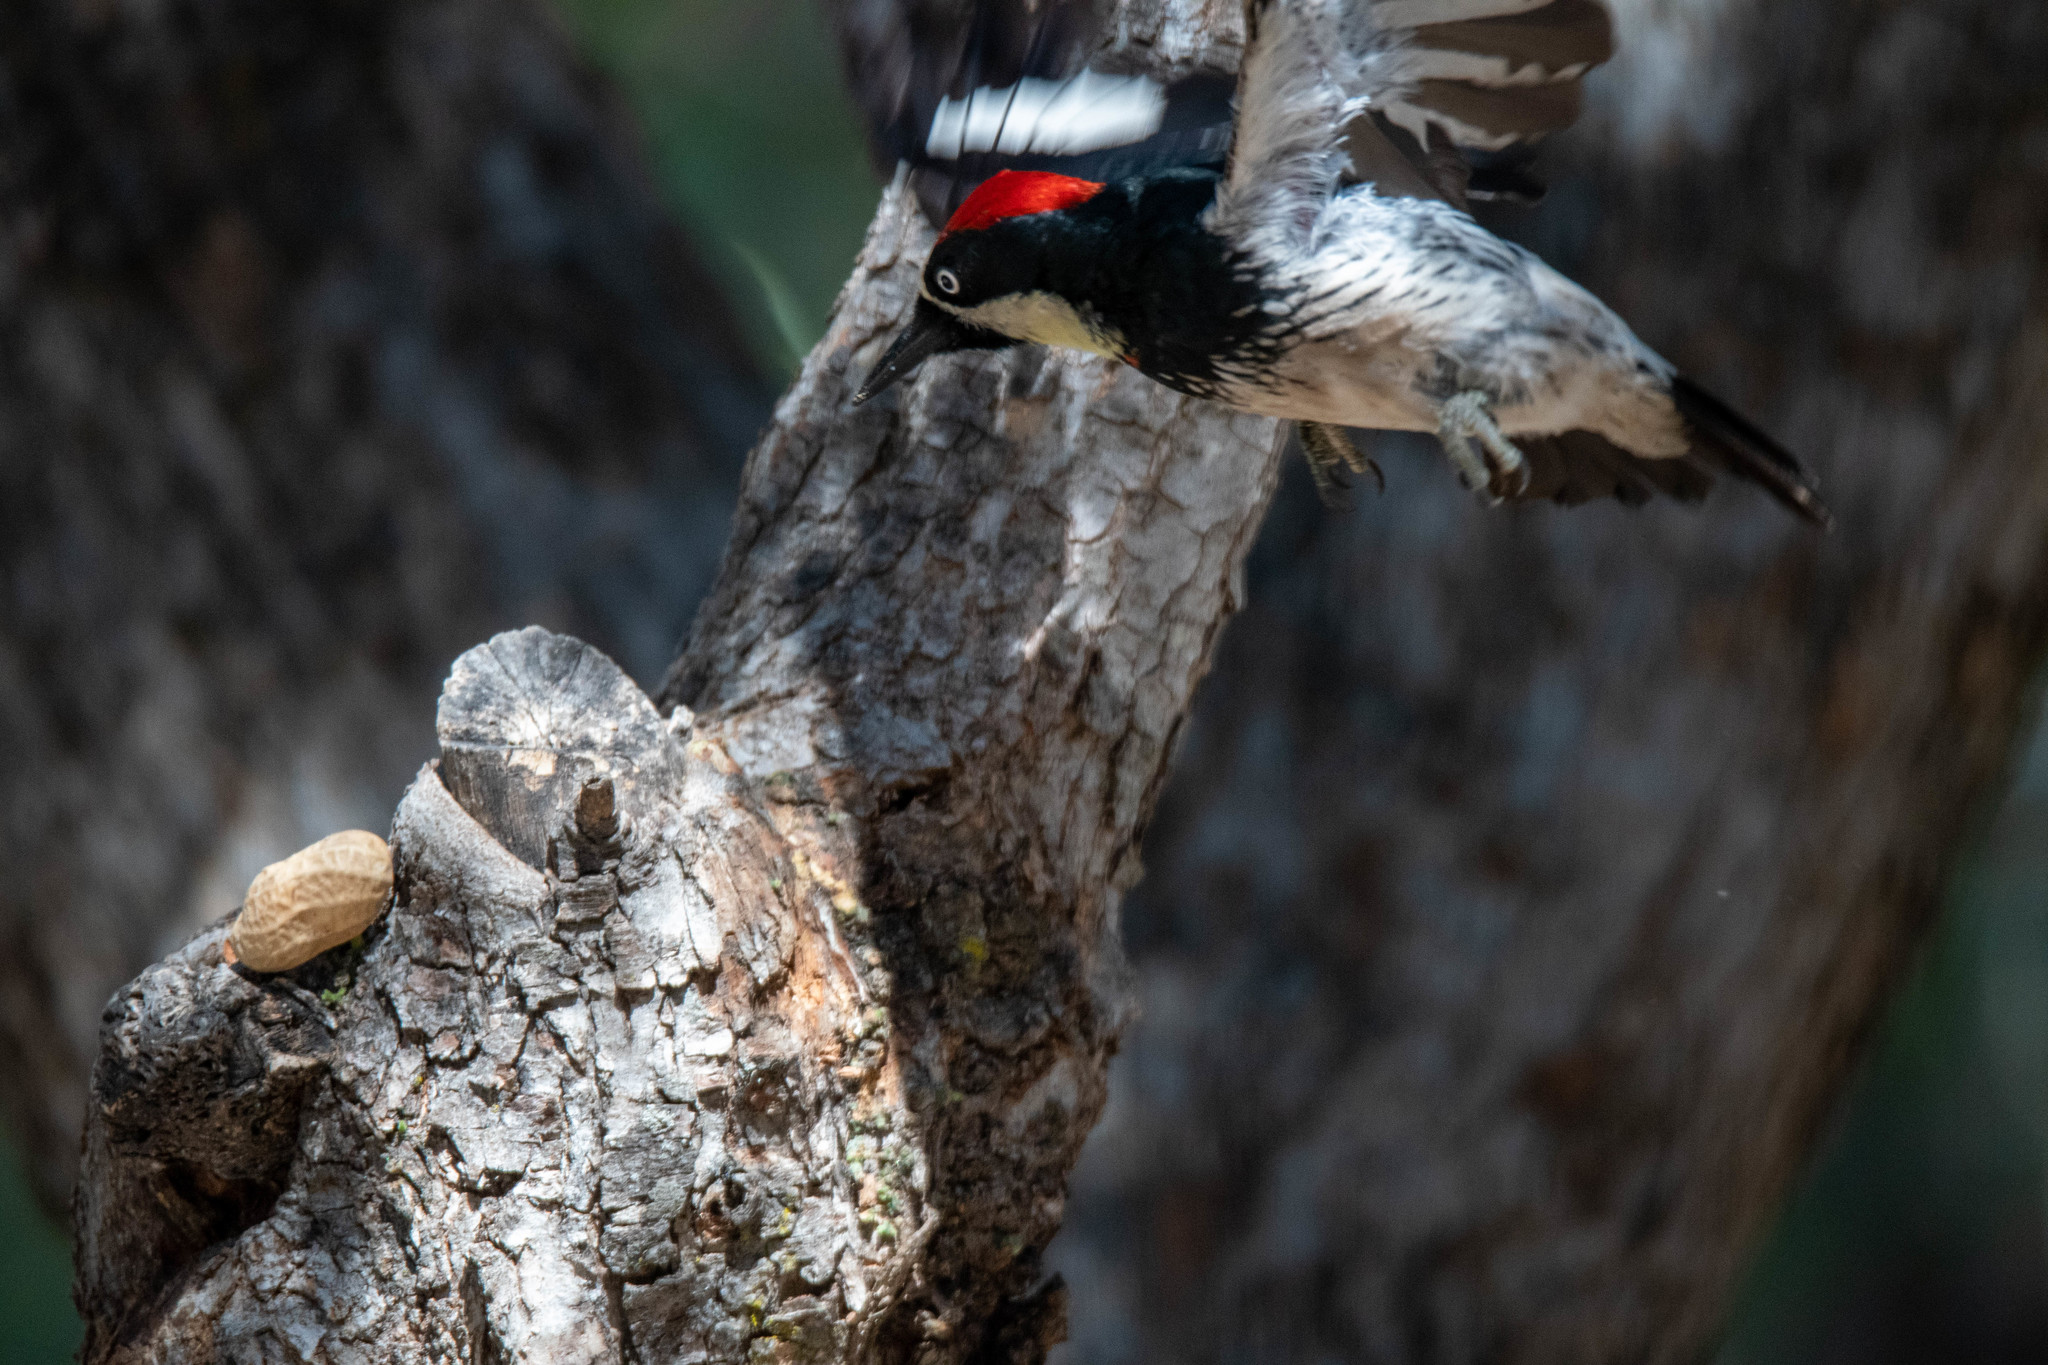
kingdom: Animalia
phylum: Chordata
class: Aves
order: Piciformes
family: Picidae
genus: Melanerpes
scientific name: Melanerpes formicivorus
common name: Acorn woodpecker
